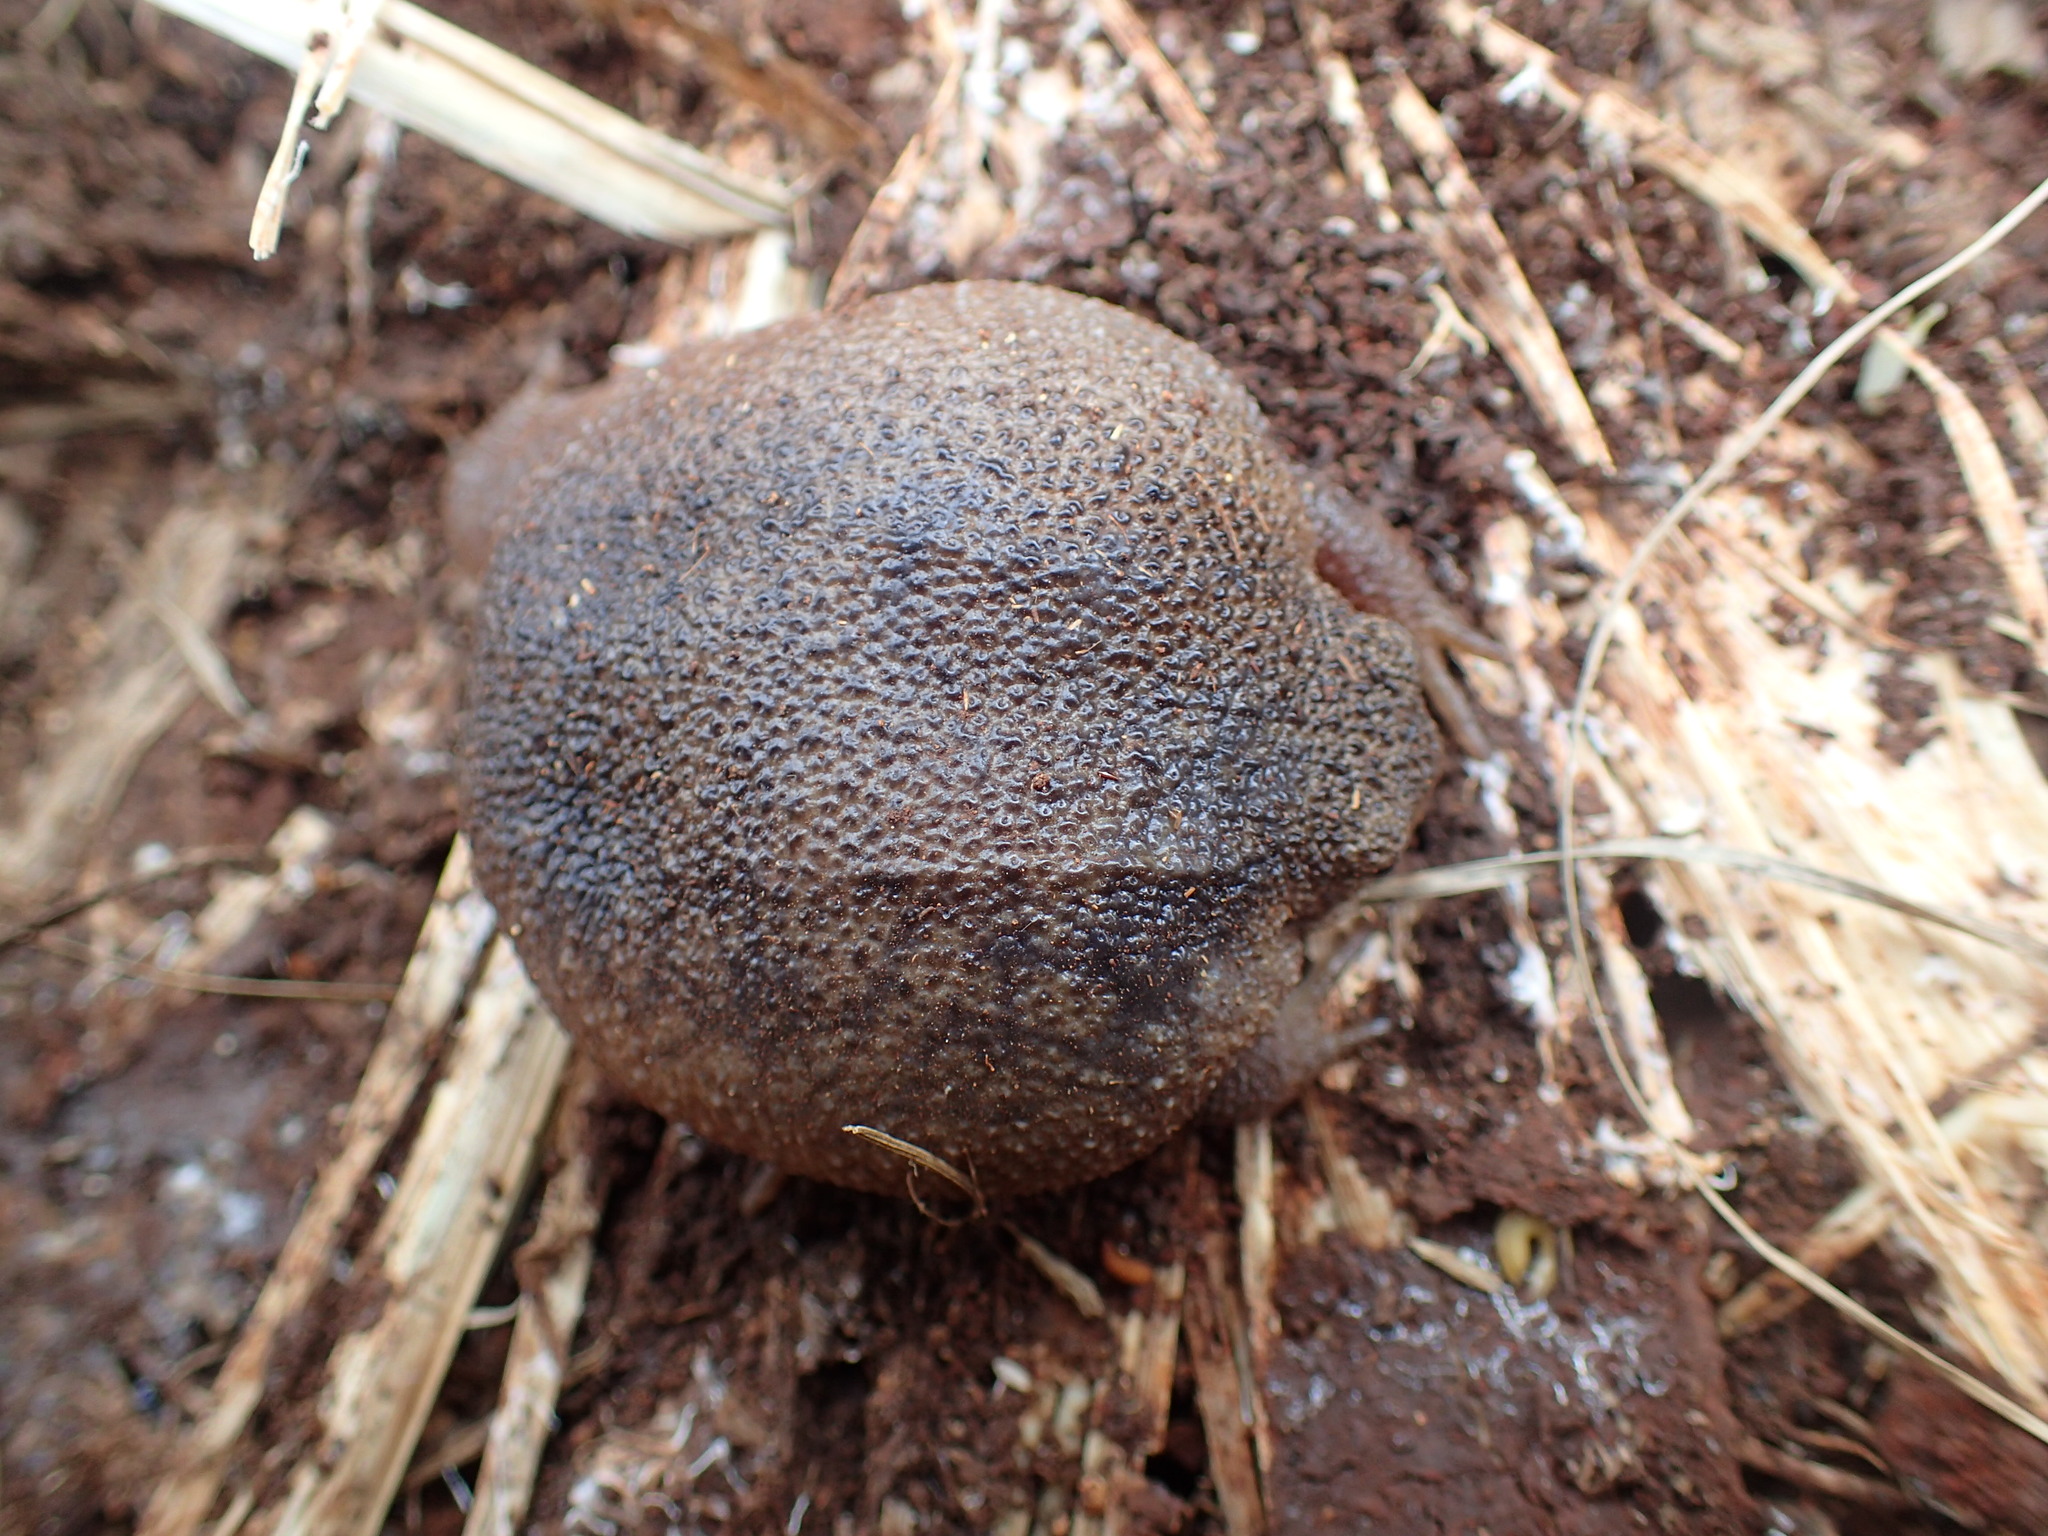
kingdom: Animalia
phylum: Chordata
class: Amphibia
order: Anura
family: Brevicipitidae
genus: Breviceps
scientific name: Breviceps verrucosus
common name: Plaintive rain frog
